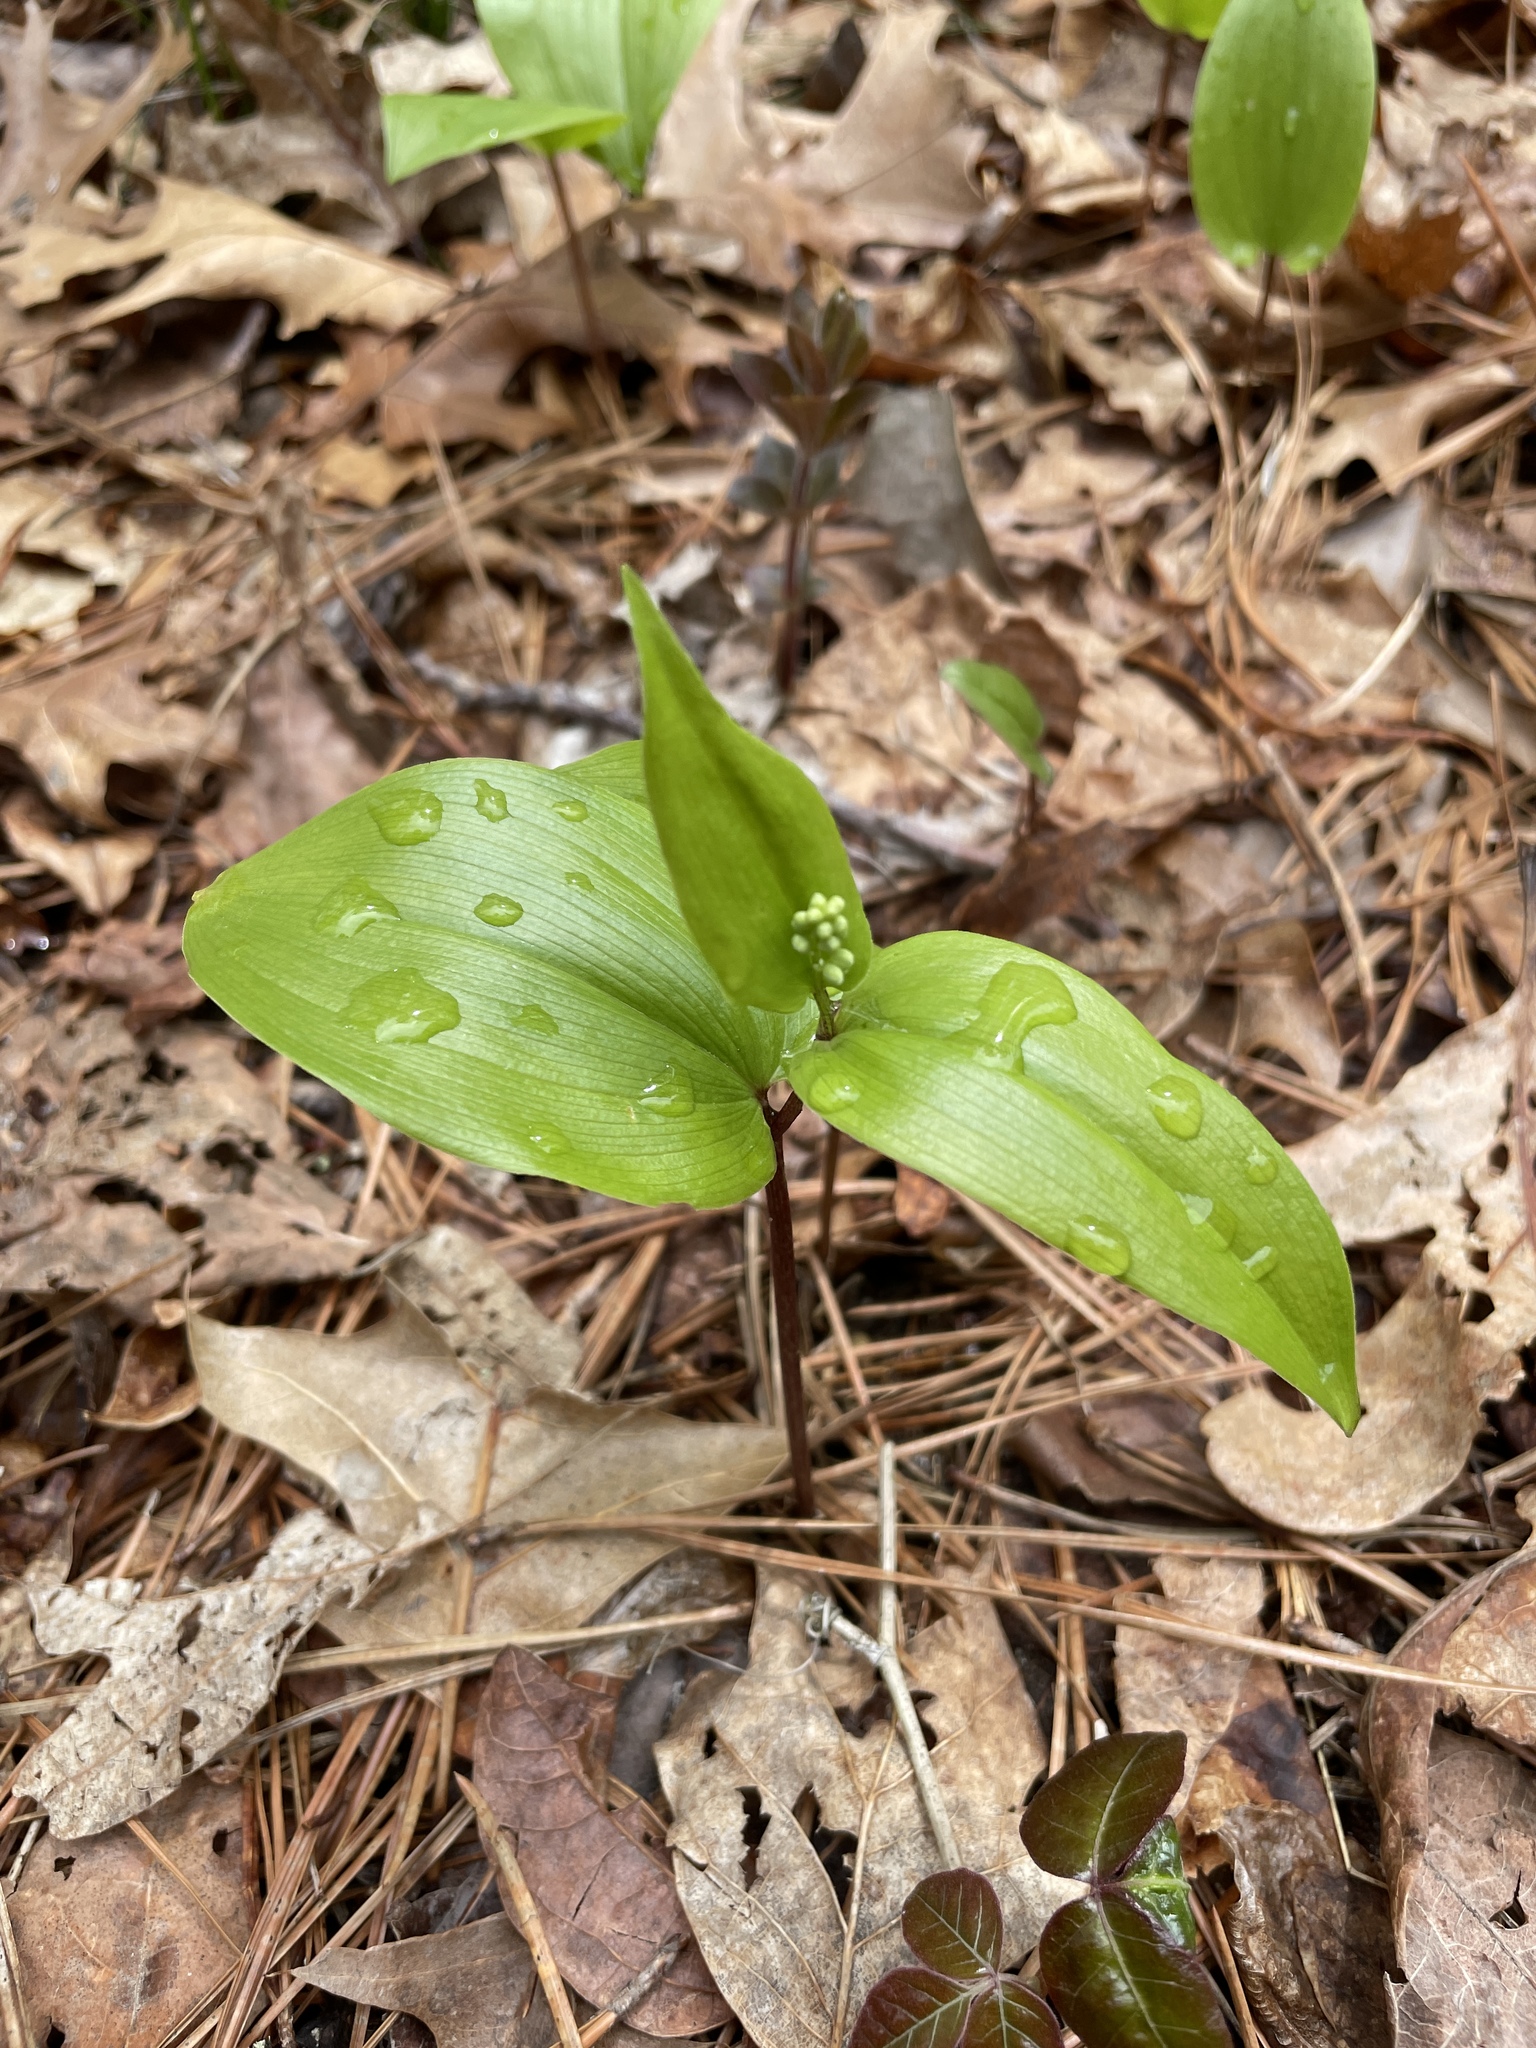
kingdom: Plantae
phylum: Tracheophyta
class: Liliopsida
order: Asparagales
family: Asparagaceae
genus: Maianthemum
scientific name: Maianthemum canadense
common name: False lily-of-the-valley
